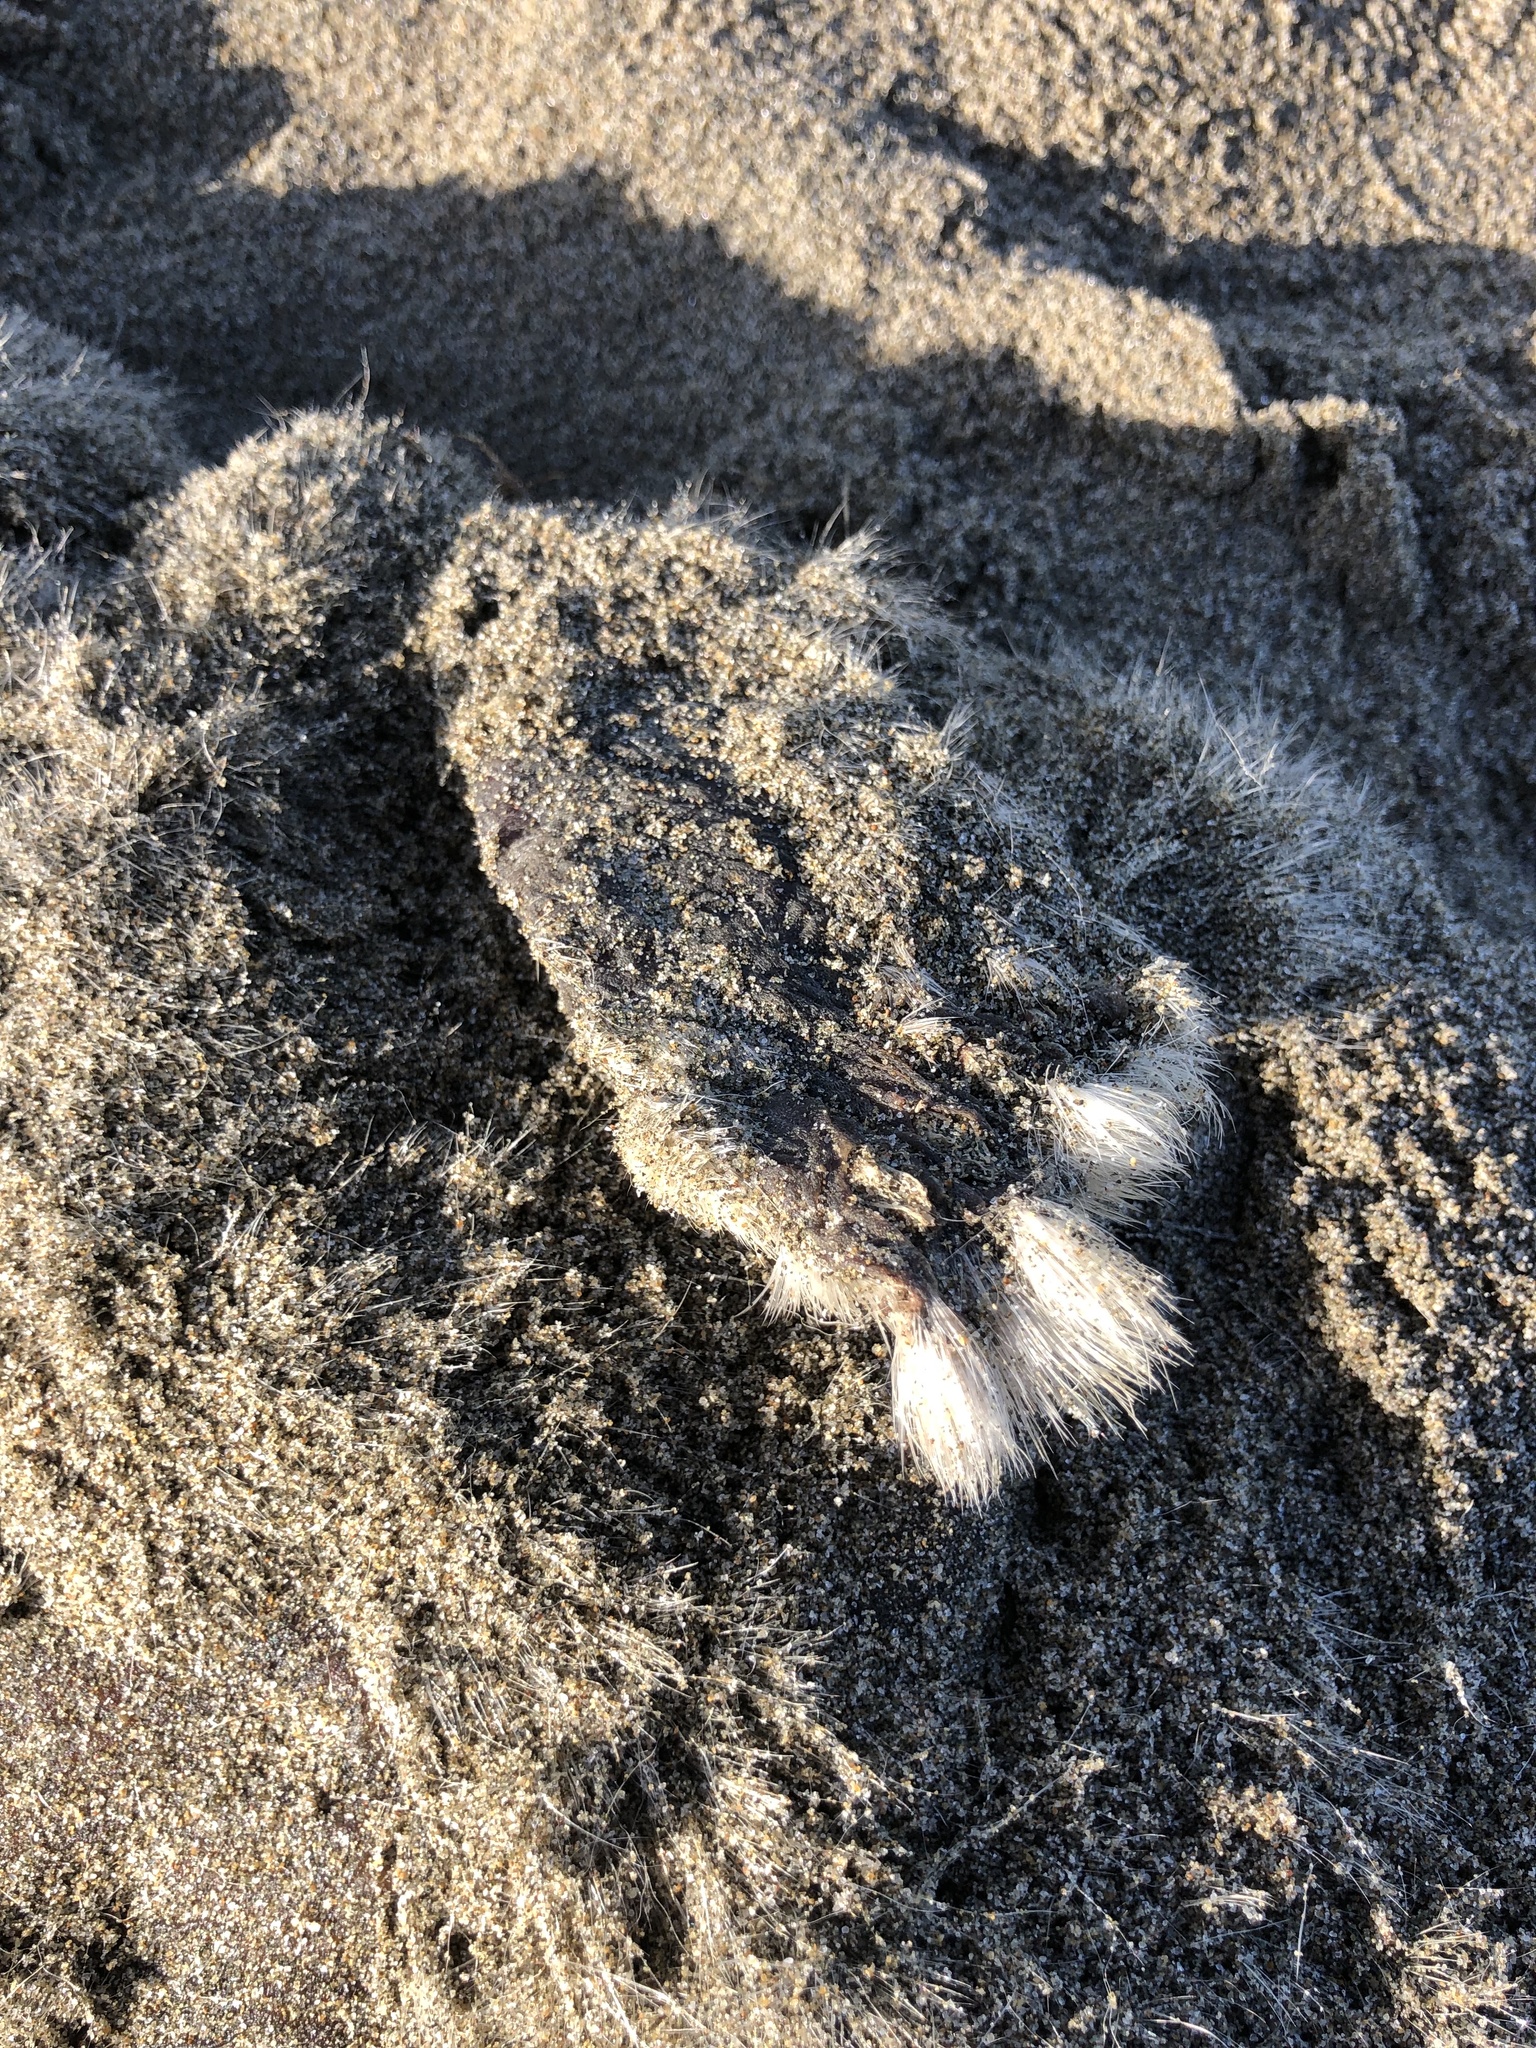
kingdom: Animalia
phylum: Chordata
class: Mammalia
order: Carnivora
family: Mustelidae
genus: Enhydra
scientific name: Enhydra lutris
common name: Sea otter
